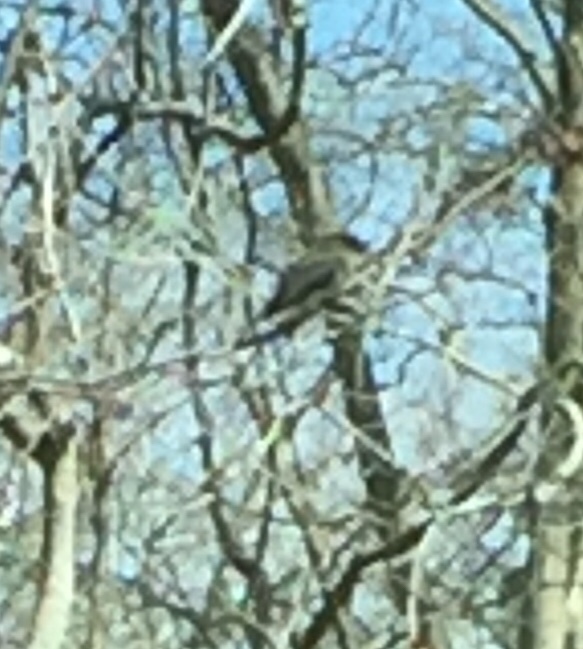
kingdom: Animalia
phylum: Chordata
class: Aves
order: Passeriformes
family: Tyrannidae
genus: Sayornis
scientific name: Sayornis phoebe
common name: Eastern phoebe
